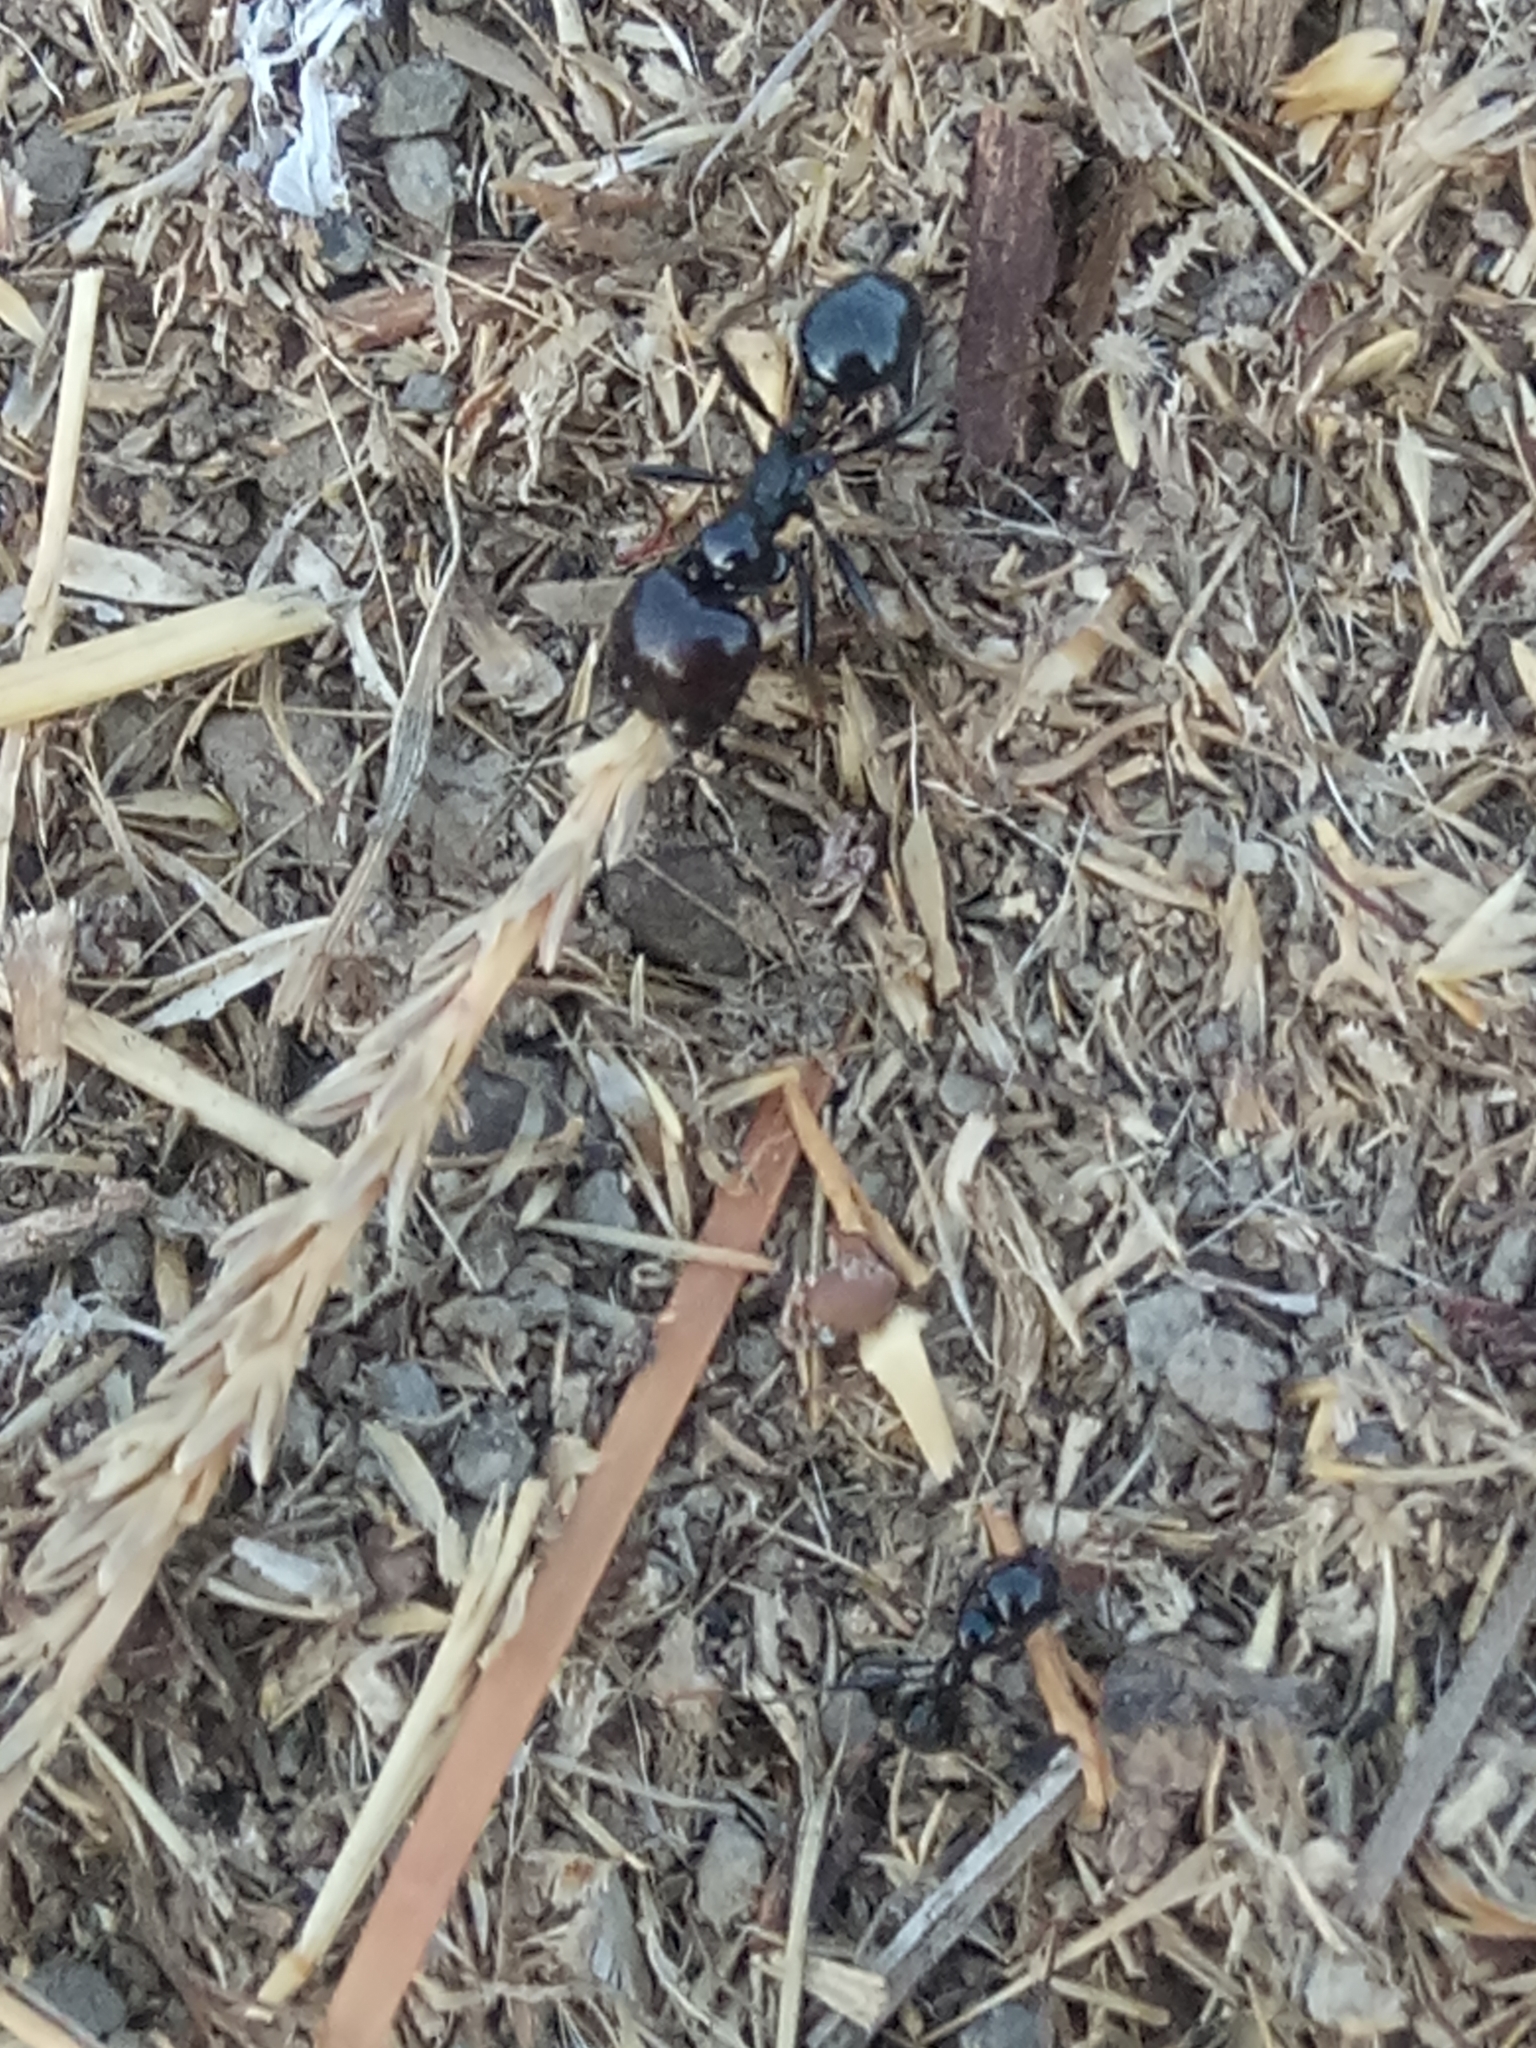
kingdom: Animalia
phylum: Arthropoda
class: Insecta
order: Hymenoptera
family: Formicidae
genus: Messor
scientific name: Messor barbarus
